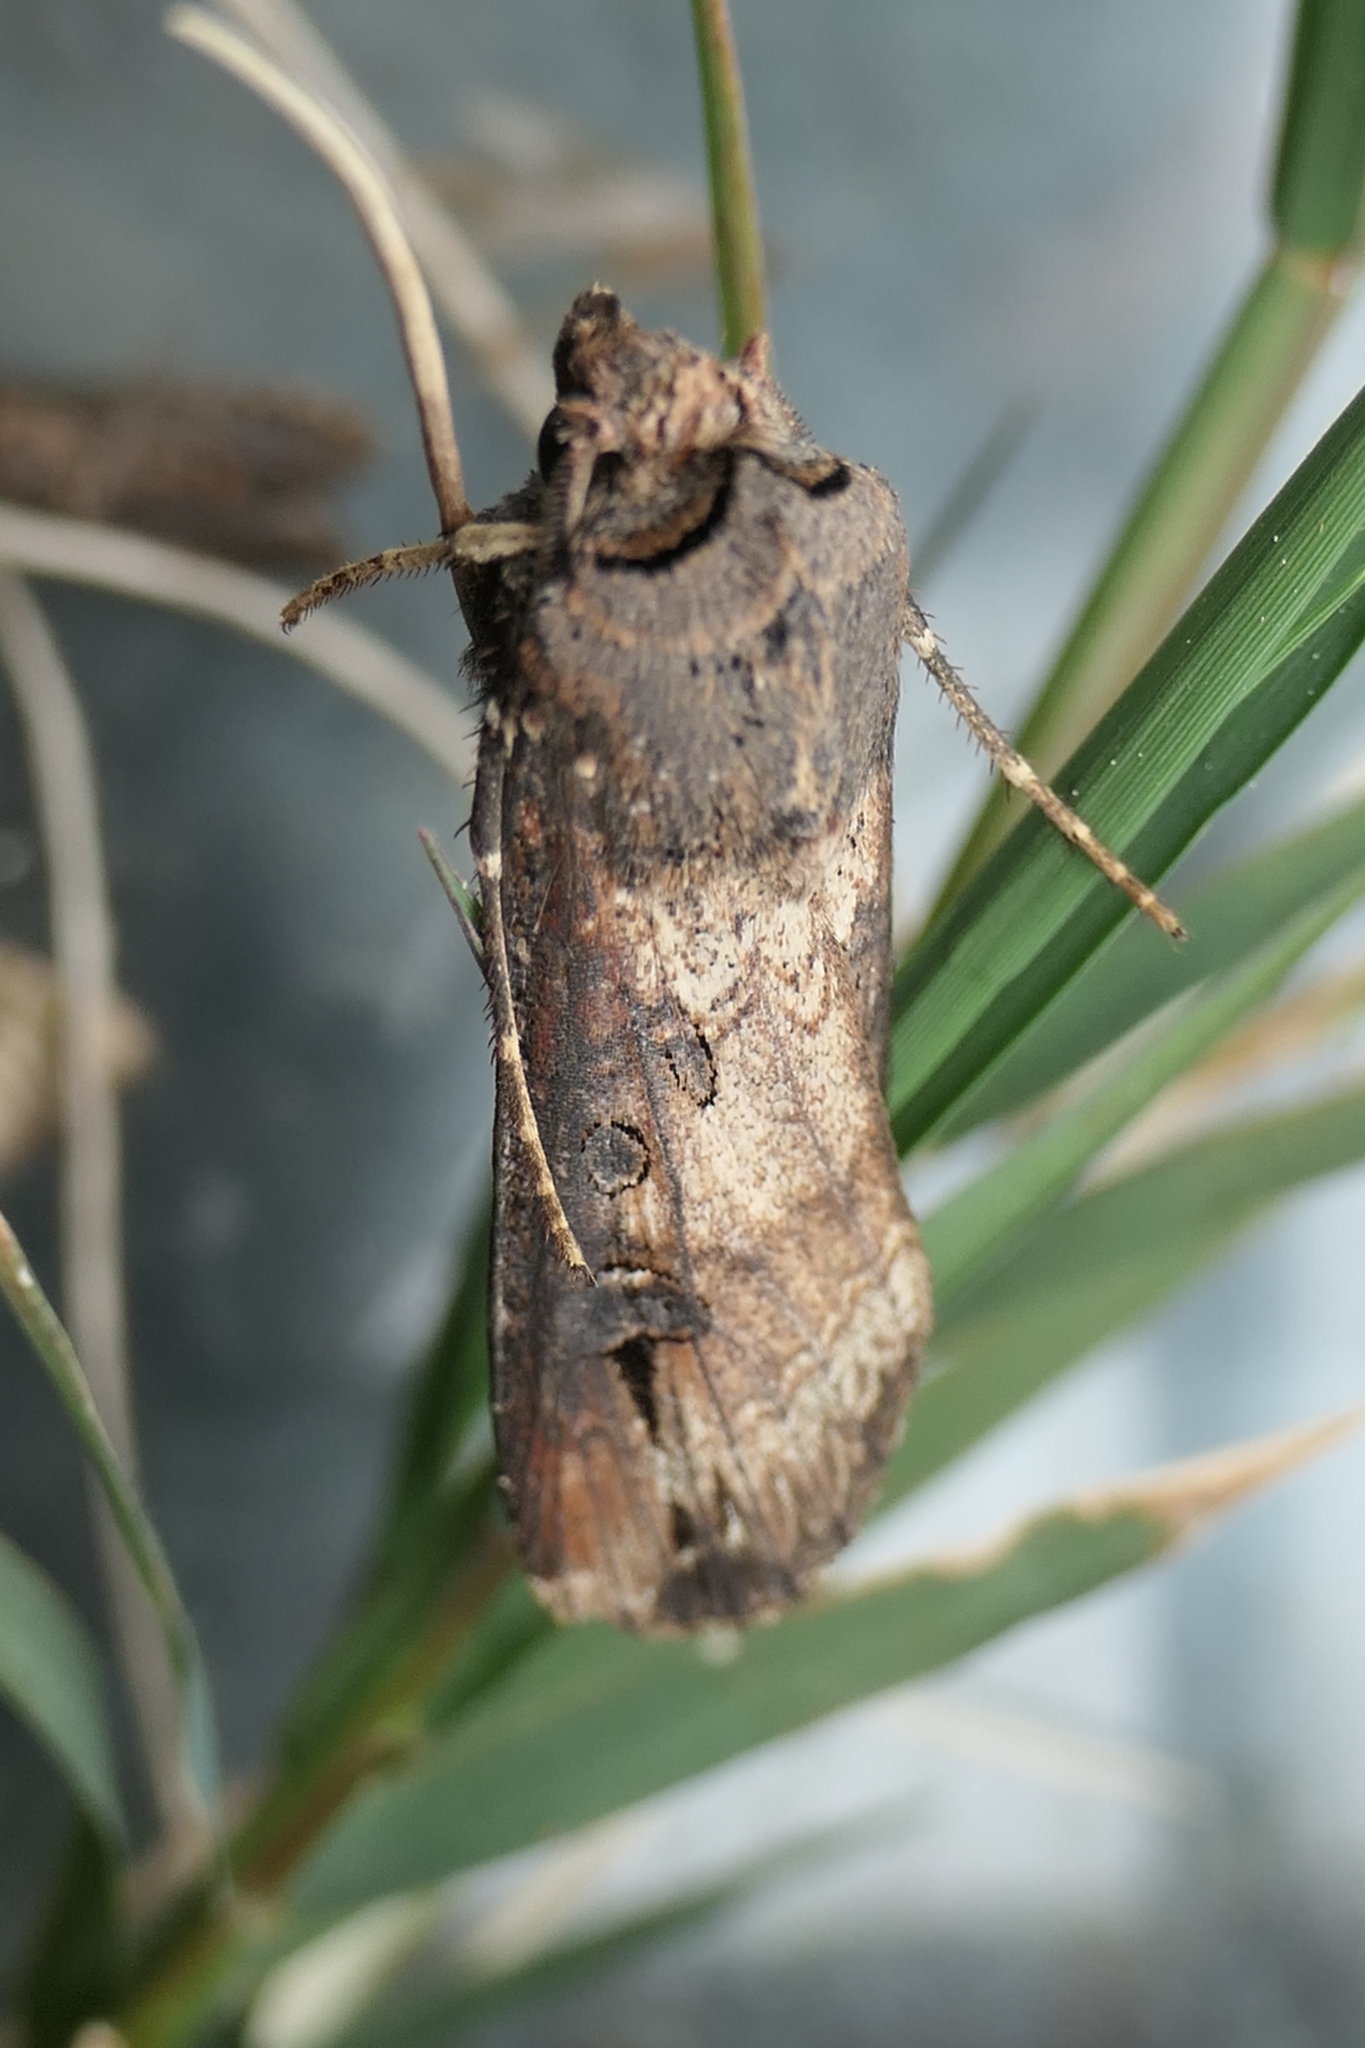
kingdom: Animalia
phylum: Arthropoda
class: Insecta
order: Lepidoptera
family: Noctuidae
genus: Agrotis
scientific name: Agrotis ipsilon
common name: Dark sword-grass
